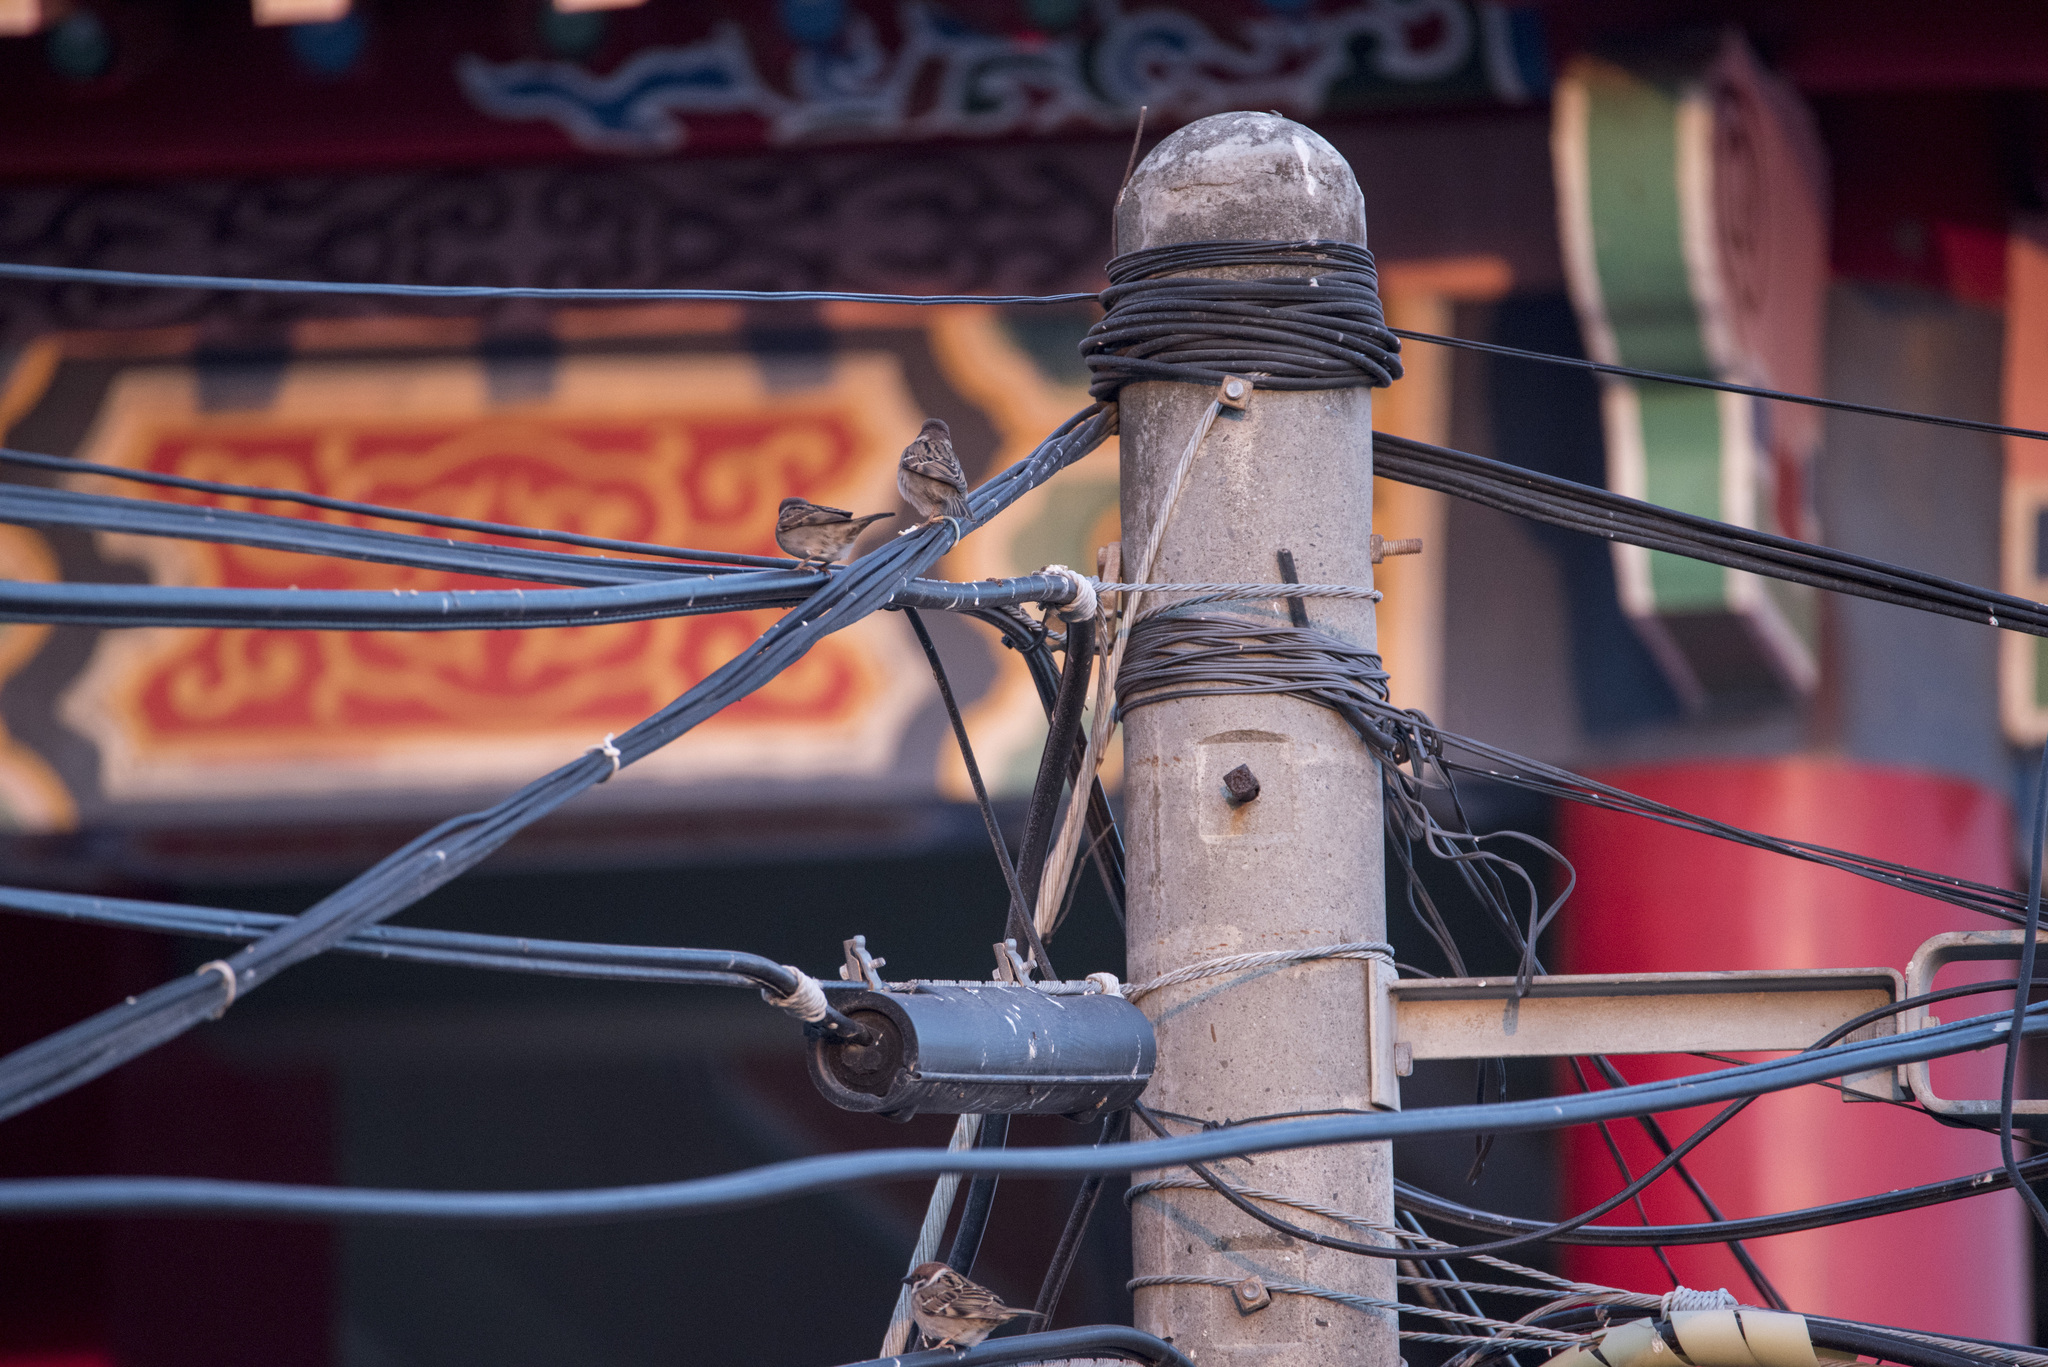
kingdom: Animalia
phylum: Chordata
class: Aves
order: Passeriformes
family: Passeridae
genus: Passer
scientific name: Passer montanus
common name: Eurasian tree sparrow
